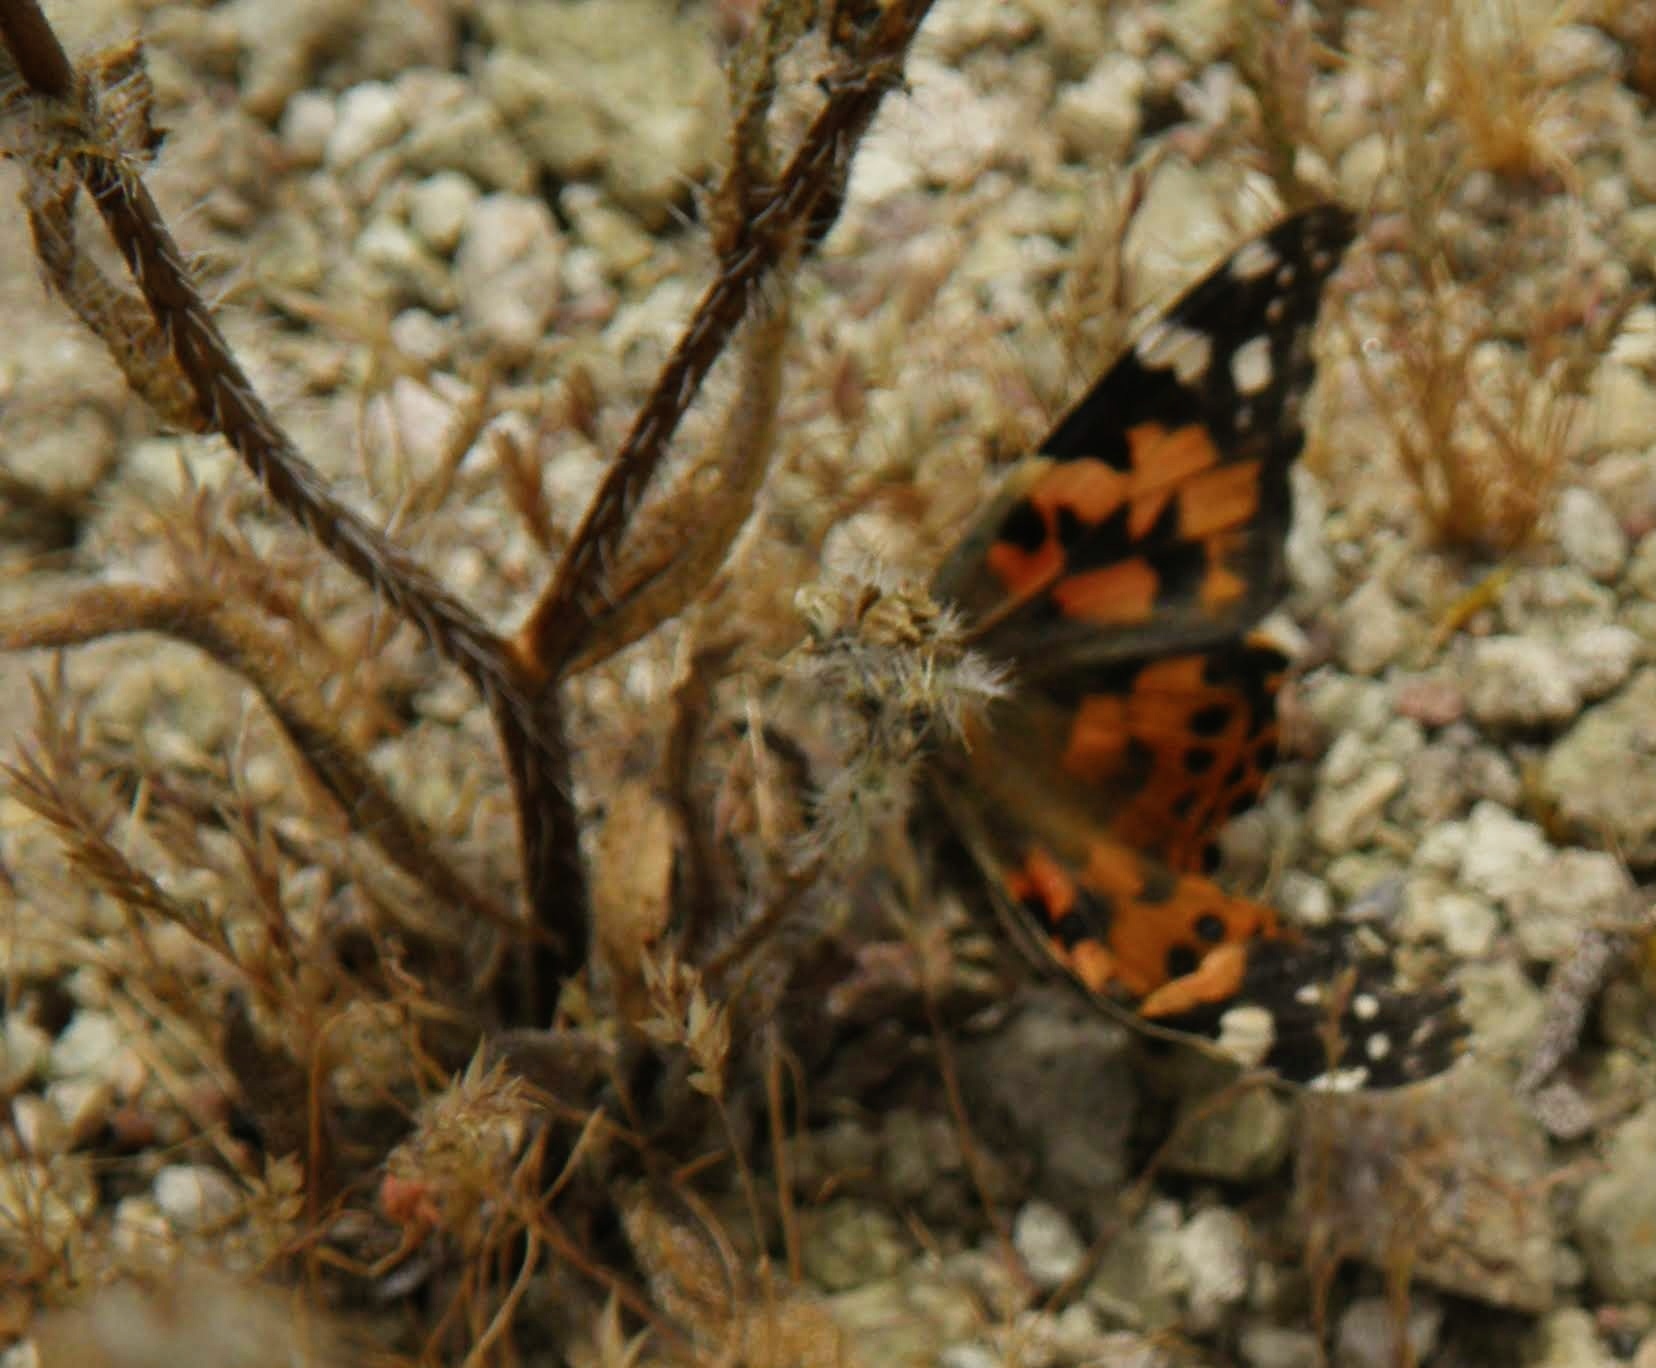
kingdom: Animalia
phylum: Arthropoda
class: Insecta
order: Lepidoptera
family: Nymphalidae
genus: Vanessa
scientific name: Vanessa cardui
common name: Painted lady
